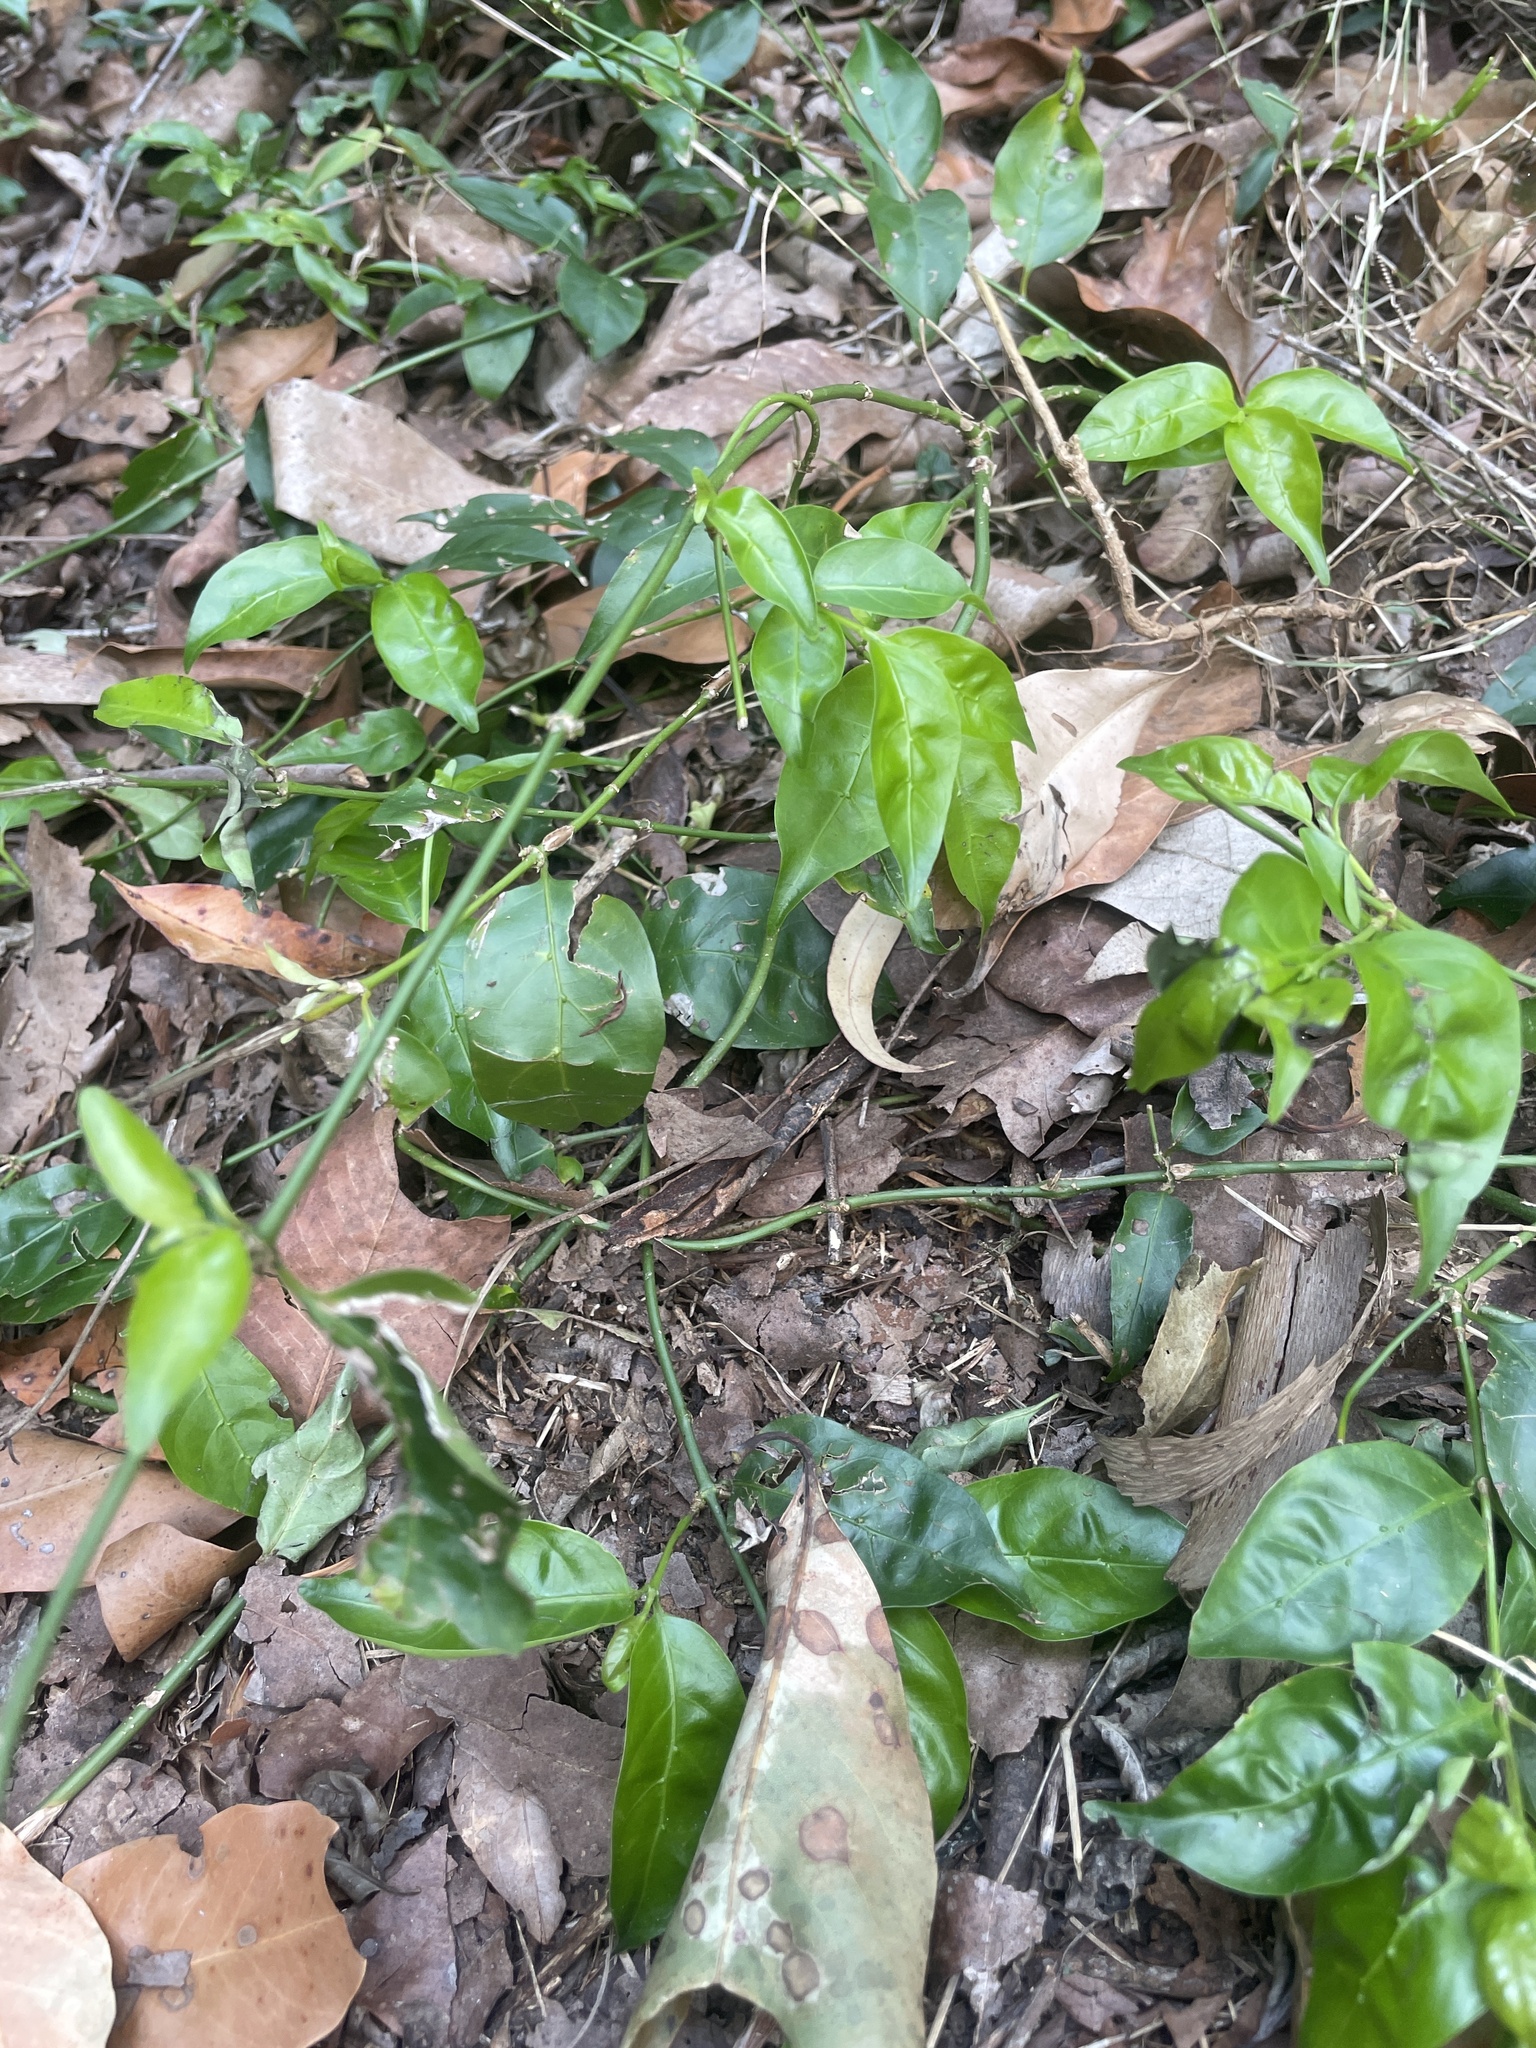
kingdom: Plantae
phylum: Tracheophyta
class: Magnoliopsida
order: Gentianales
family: Rubiaceae
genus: Gynochthodes
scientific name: Gynochthodes jasminoides
